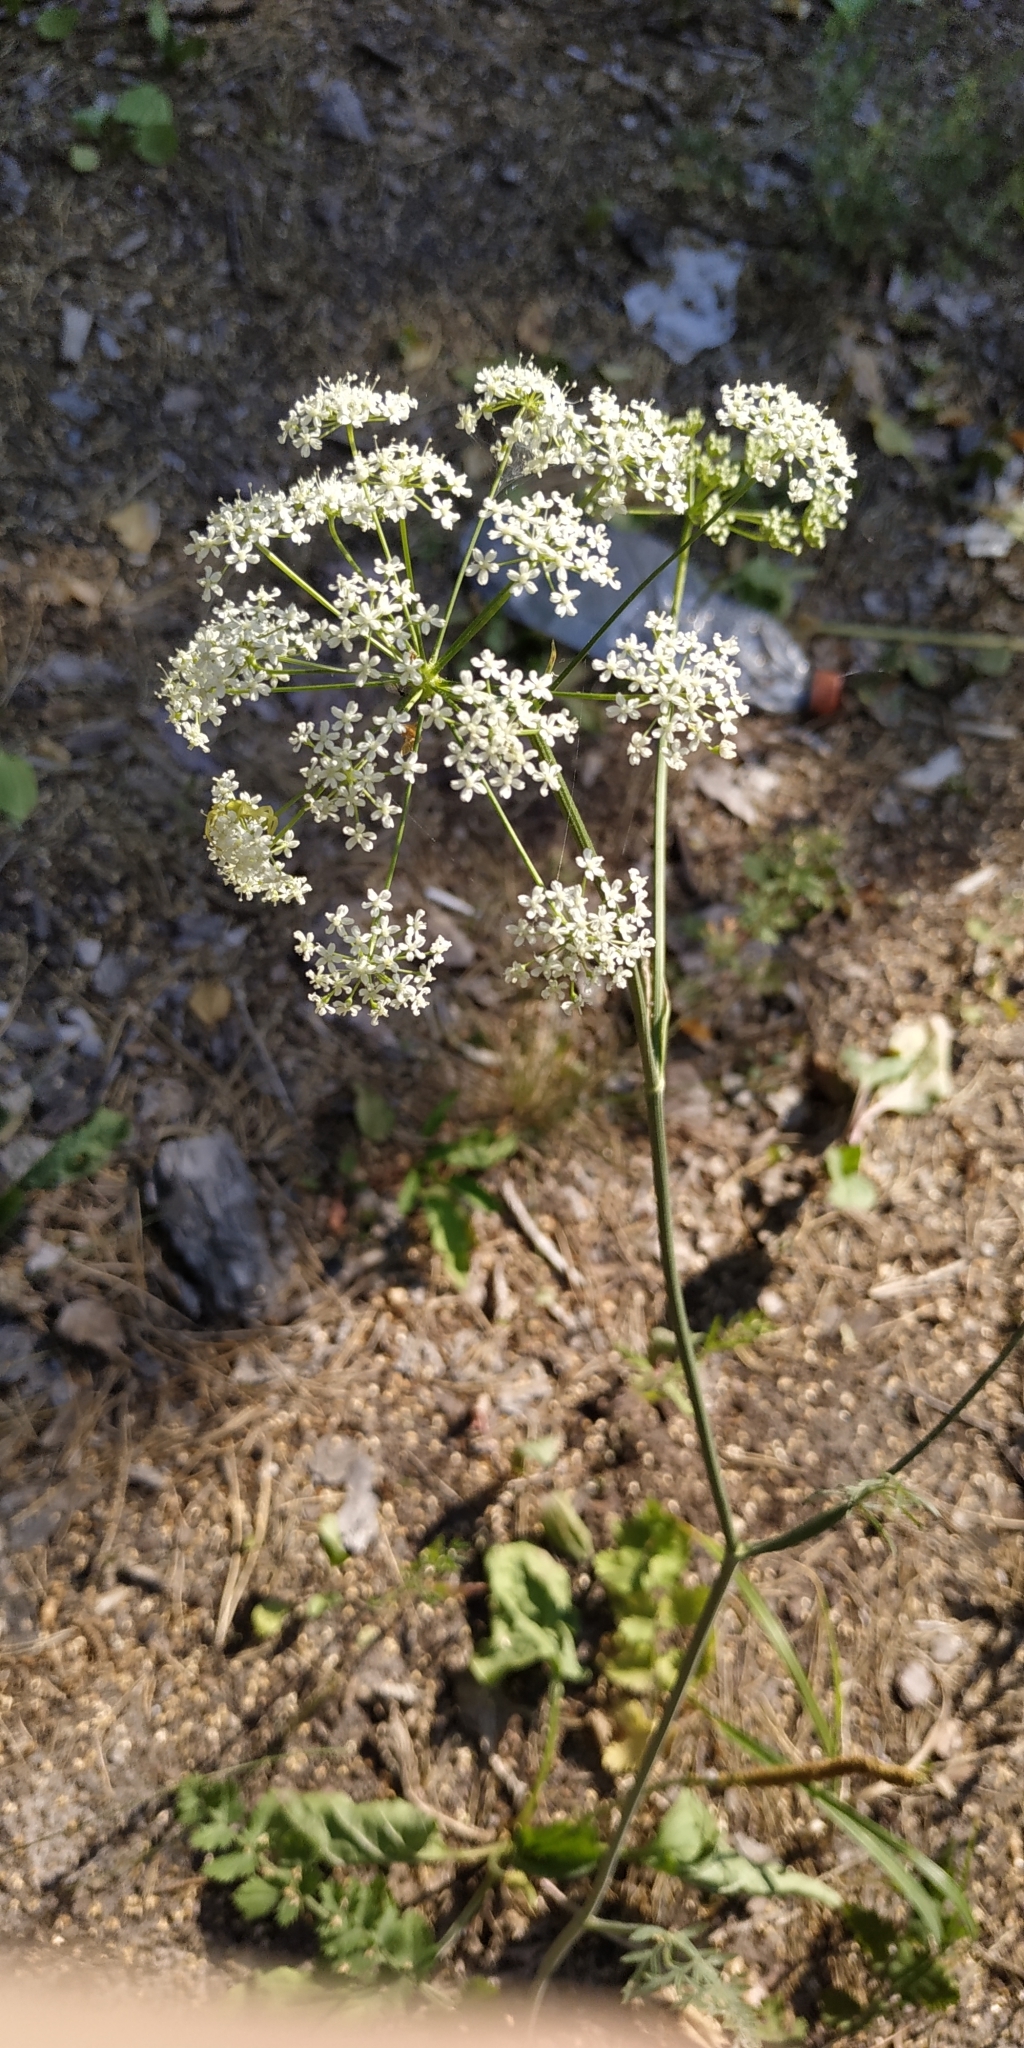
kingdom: Plantae
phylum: Tracheophyta
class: Magnoliopsida
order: Apiales
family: Apiaceae
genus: Pimpinella
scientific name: Pimpinella saxifraga
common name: Burnet-saxifrage
